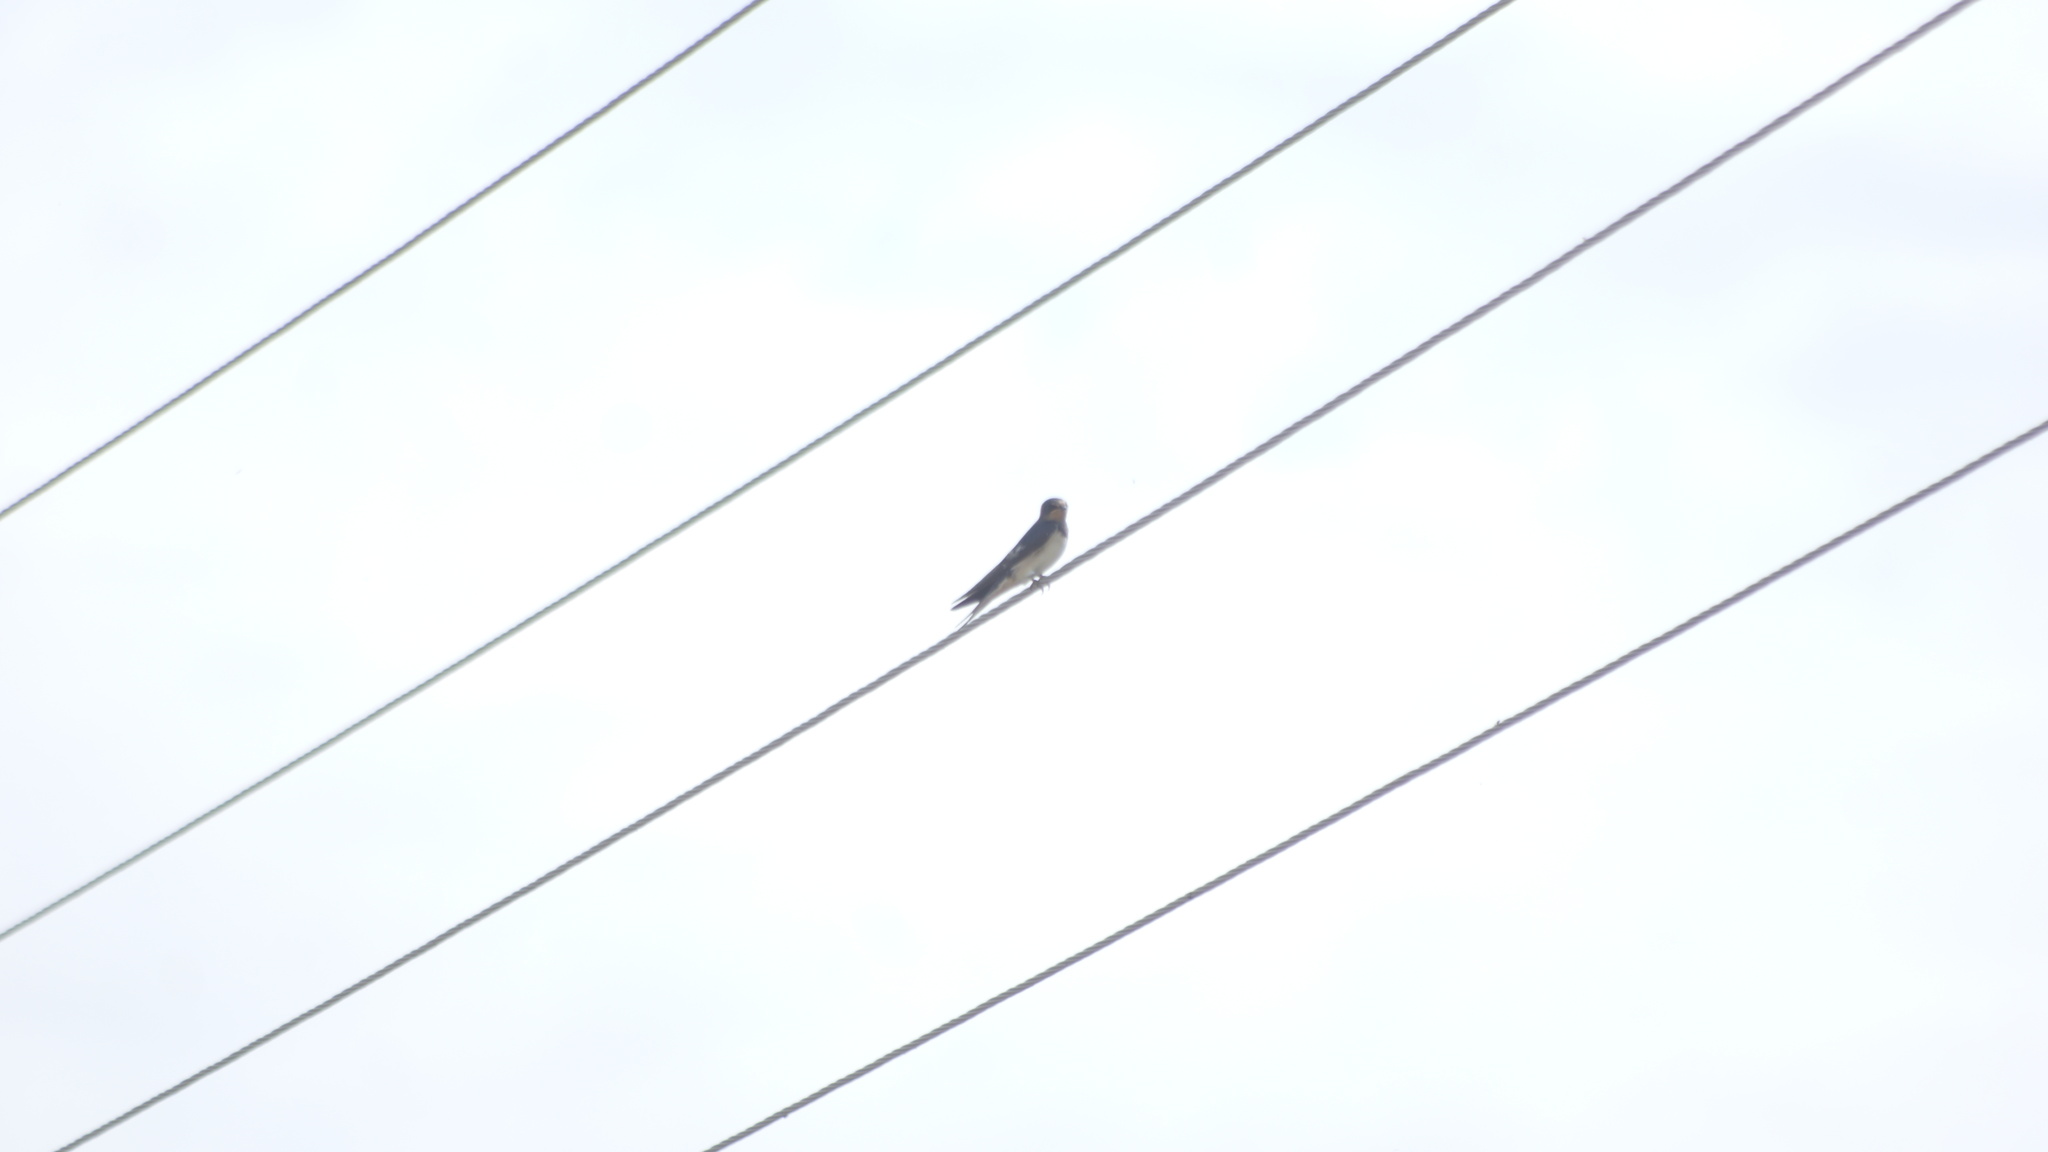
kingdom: Animalia
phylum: Chordata
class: Aves
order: Passeriformes
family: Hirundinidae
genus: Hirundo
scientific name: Hirundo rustica
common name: Barn swallow
